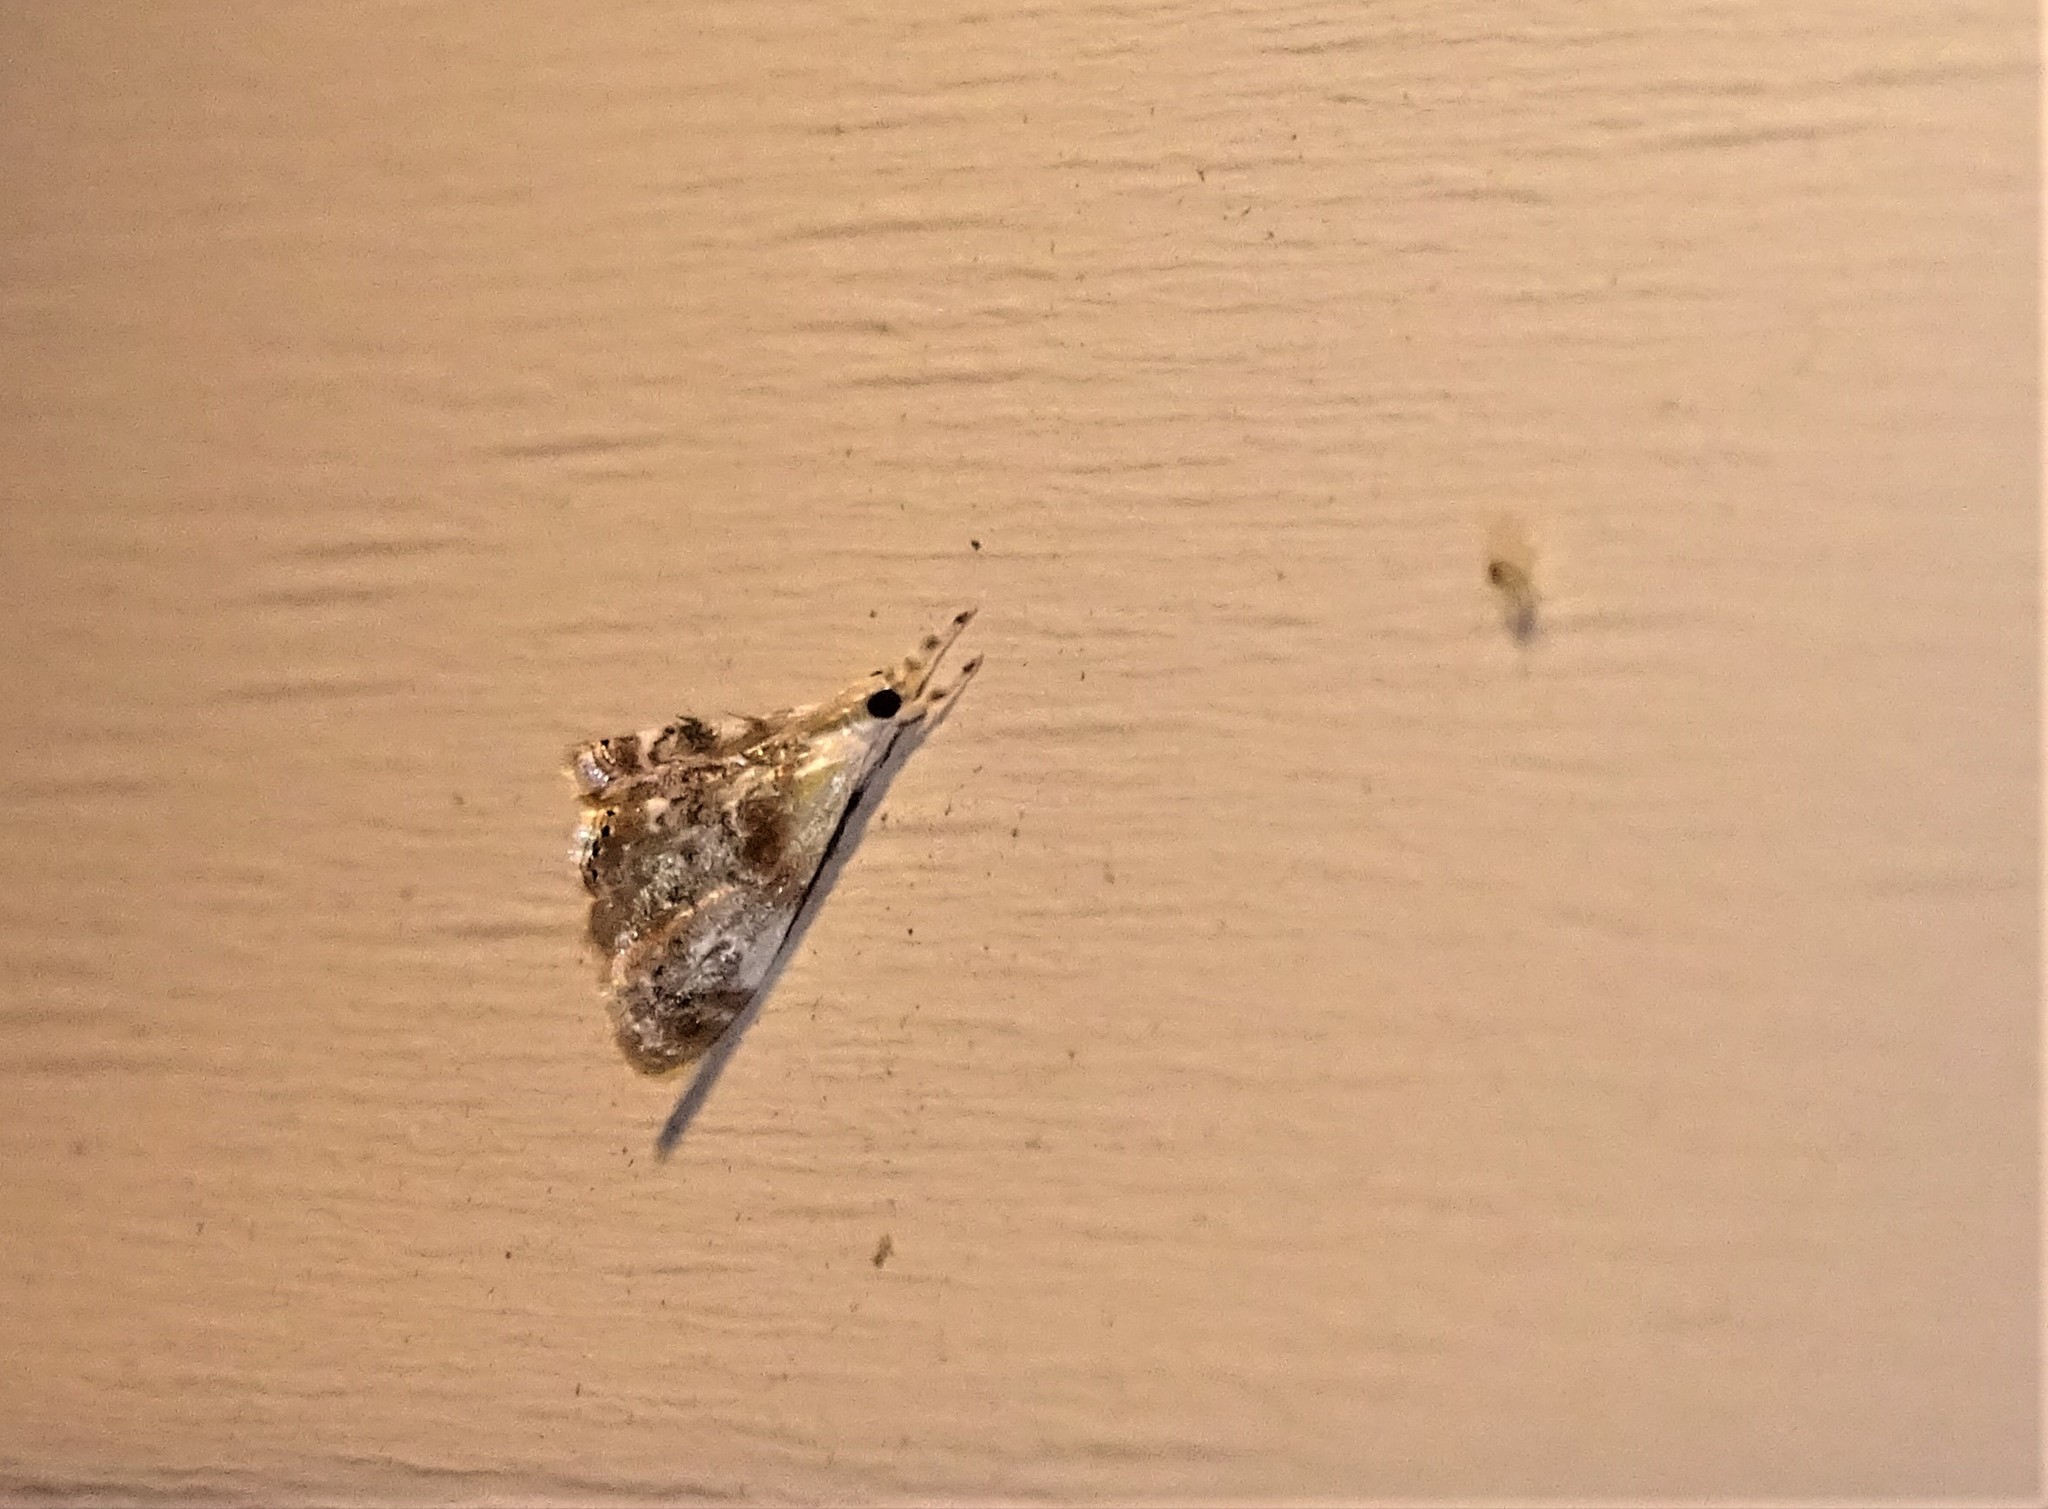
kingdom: Animalia
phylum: Arthropoda
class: Insecta
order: Lepidoptera
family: Crambidae
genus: Dicymolomia
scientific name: Dicymolomia julianalis
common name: Julia's dicymolomia moth
